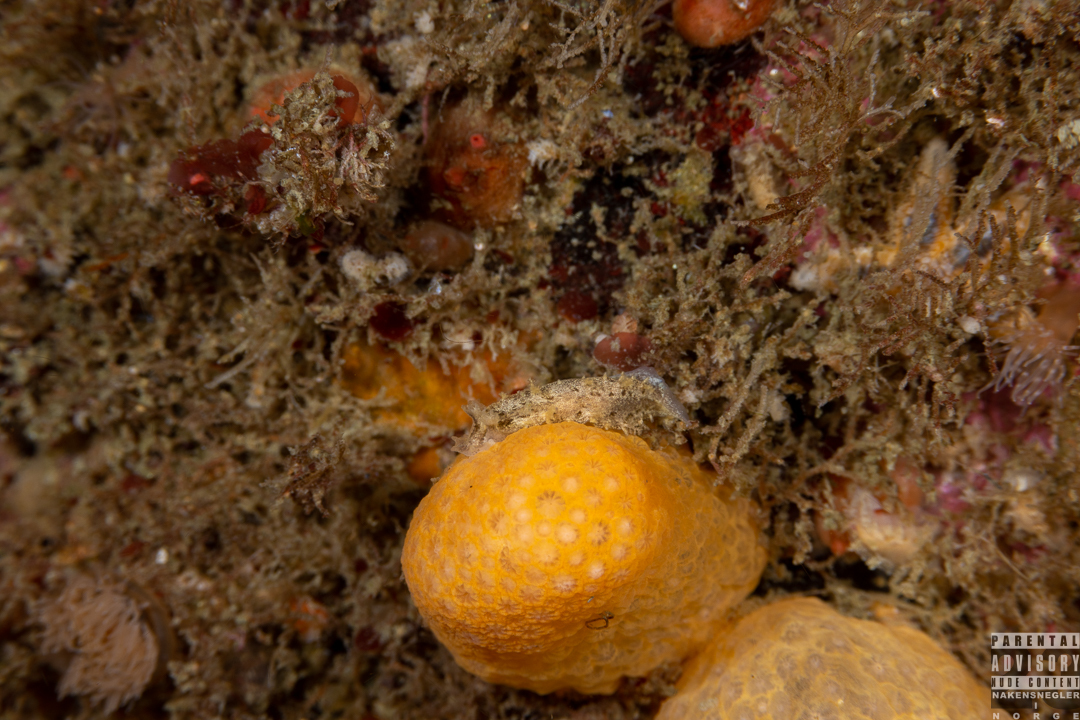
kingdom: Animalia
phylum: Mollusca
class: Gastropoda
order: Nudibranchia
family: Tritoniidae
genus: Duvaucelia
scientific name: Duvaucelia plebeia
